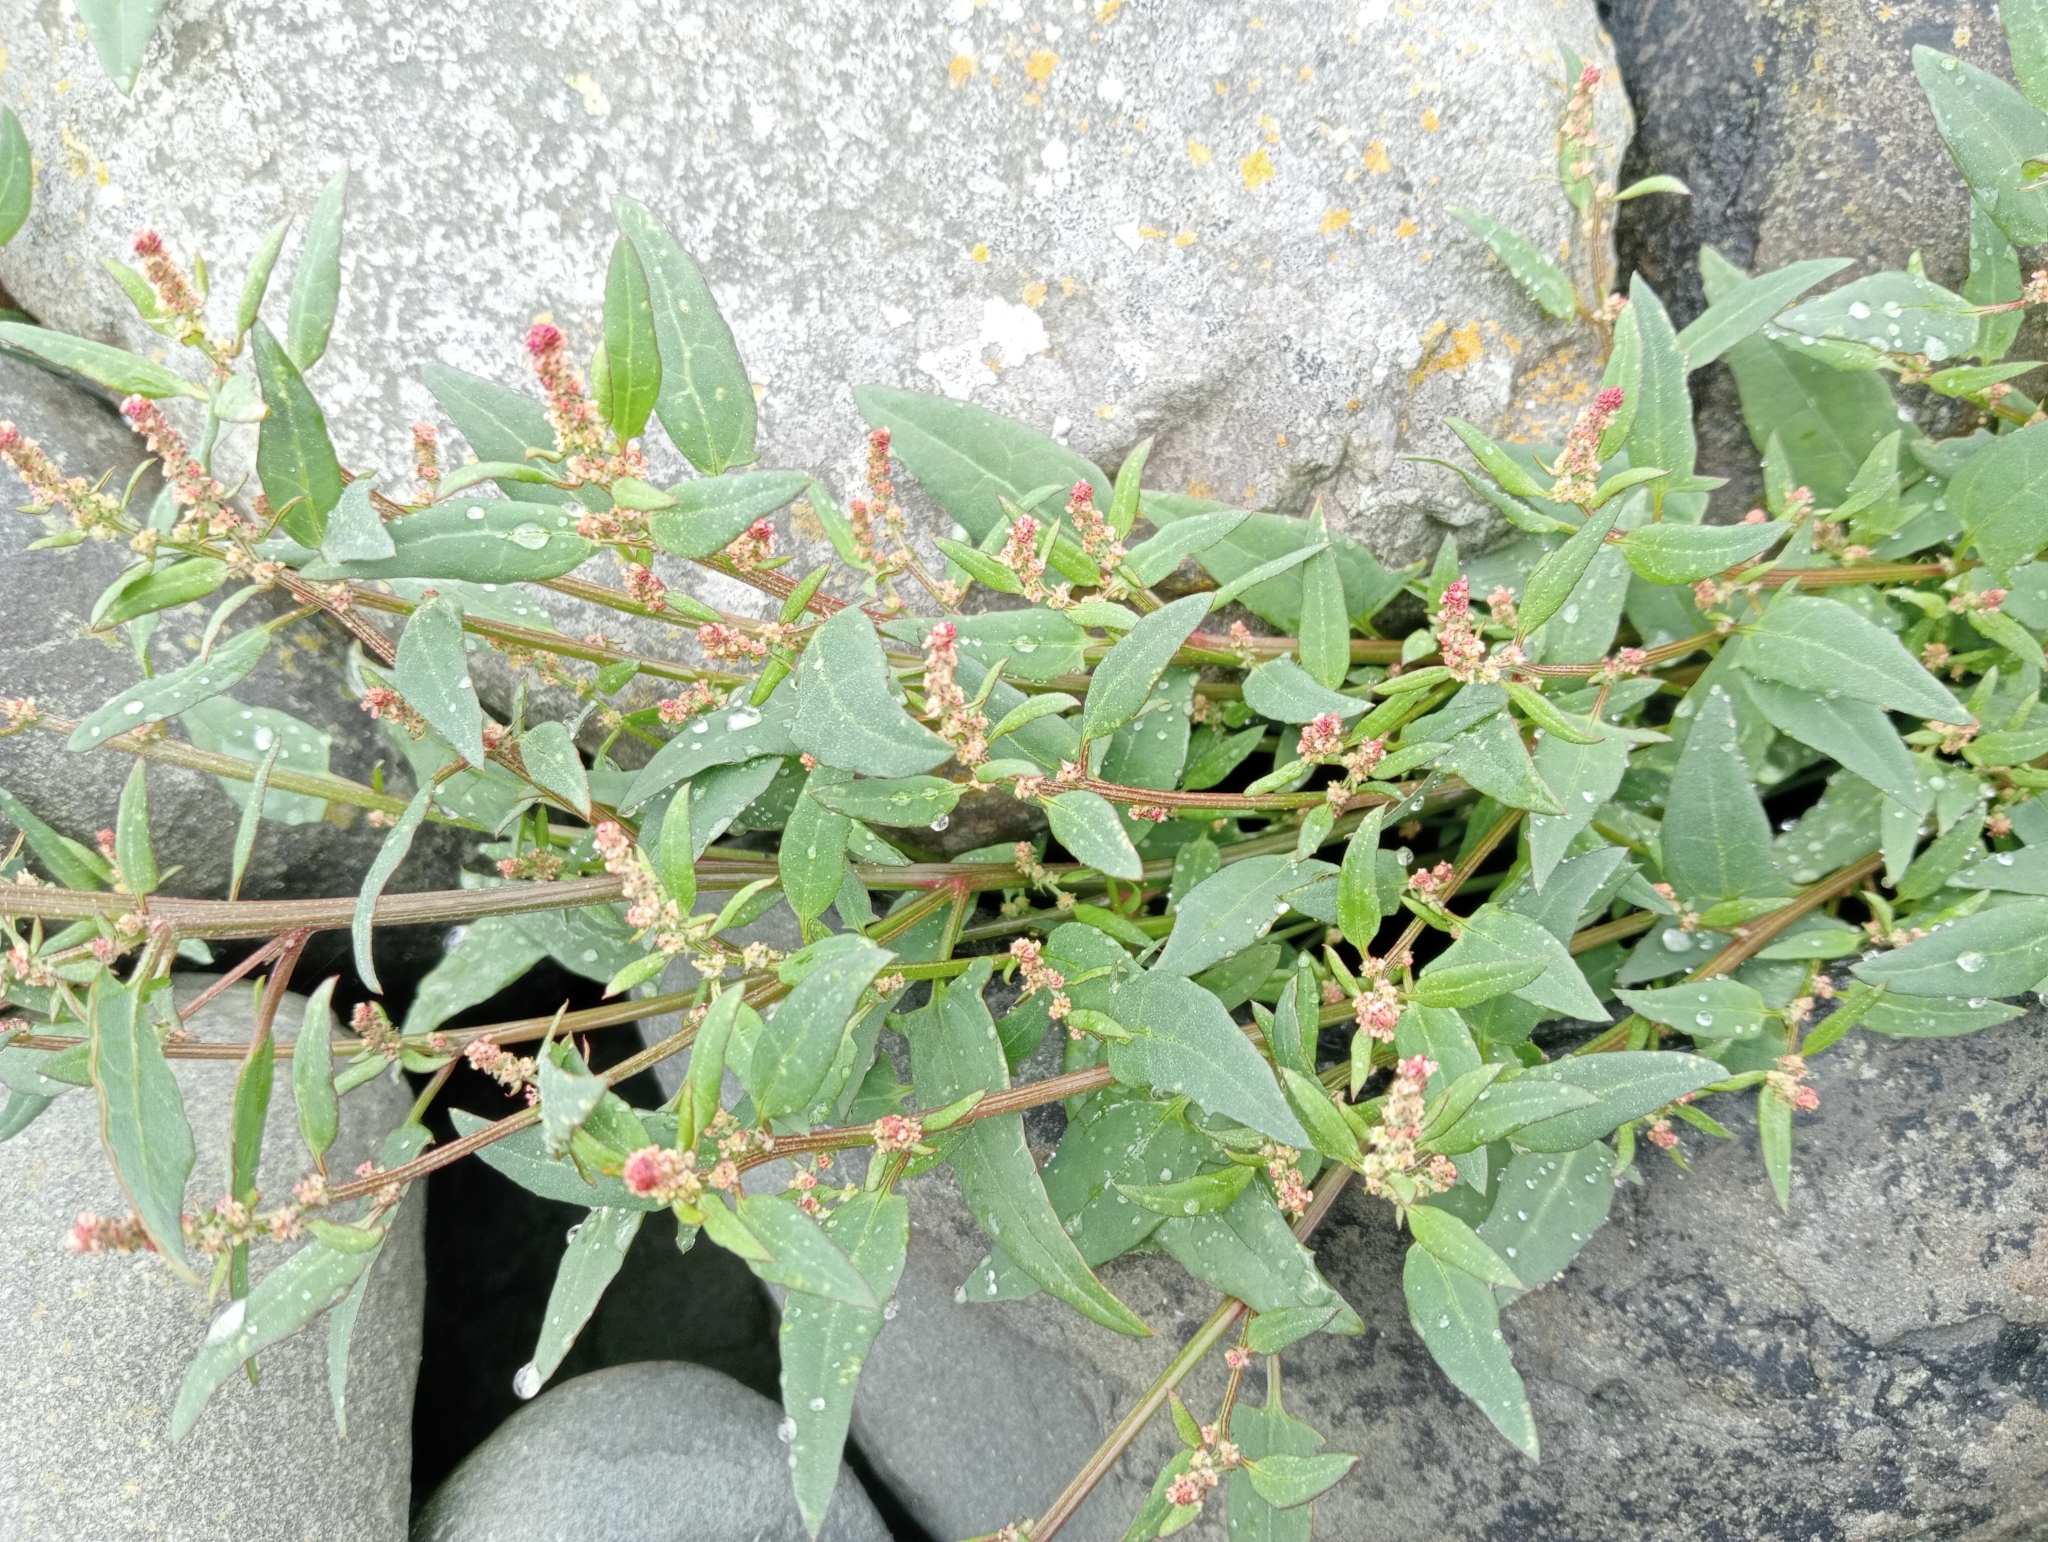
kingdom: Plantae
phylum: Tracheophyta
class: Magnoliopsida
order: Caryophyllales
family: Amaranthaceae
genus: Atriplex
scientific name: Atriplex prostrata
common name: Spear-leaved orache
